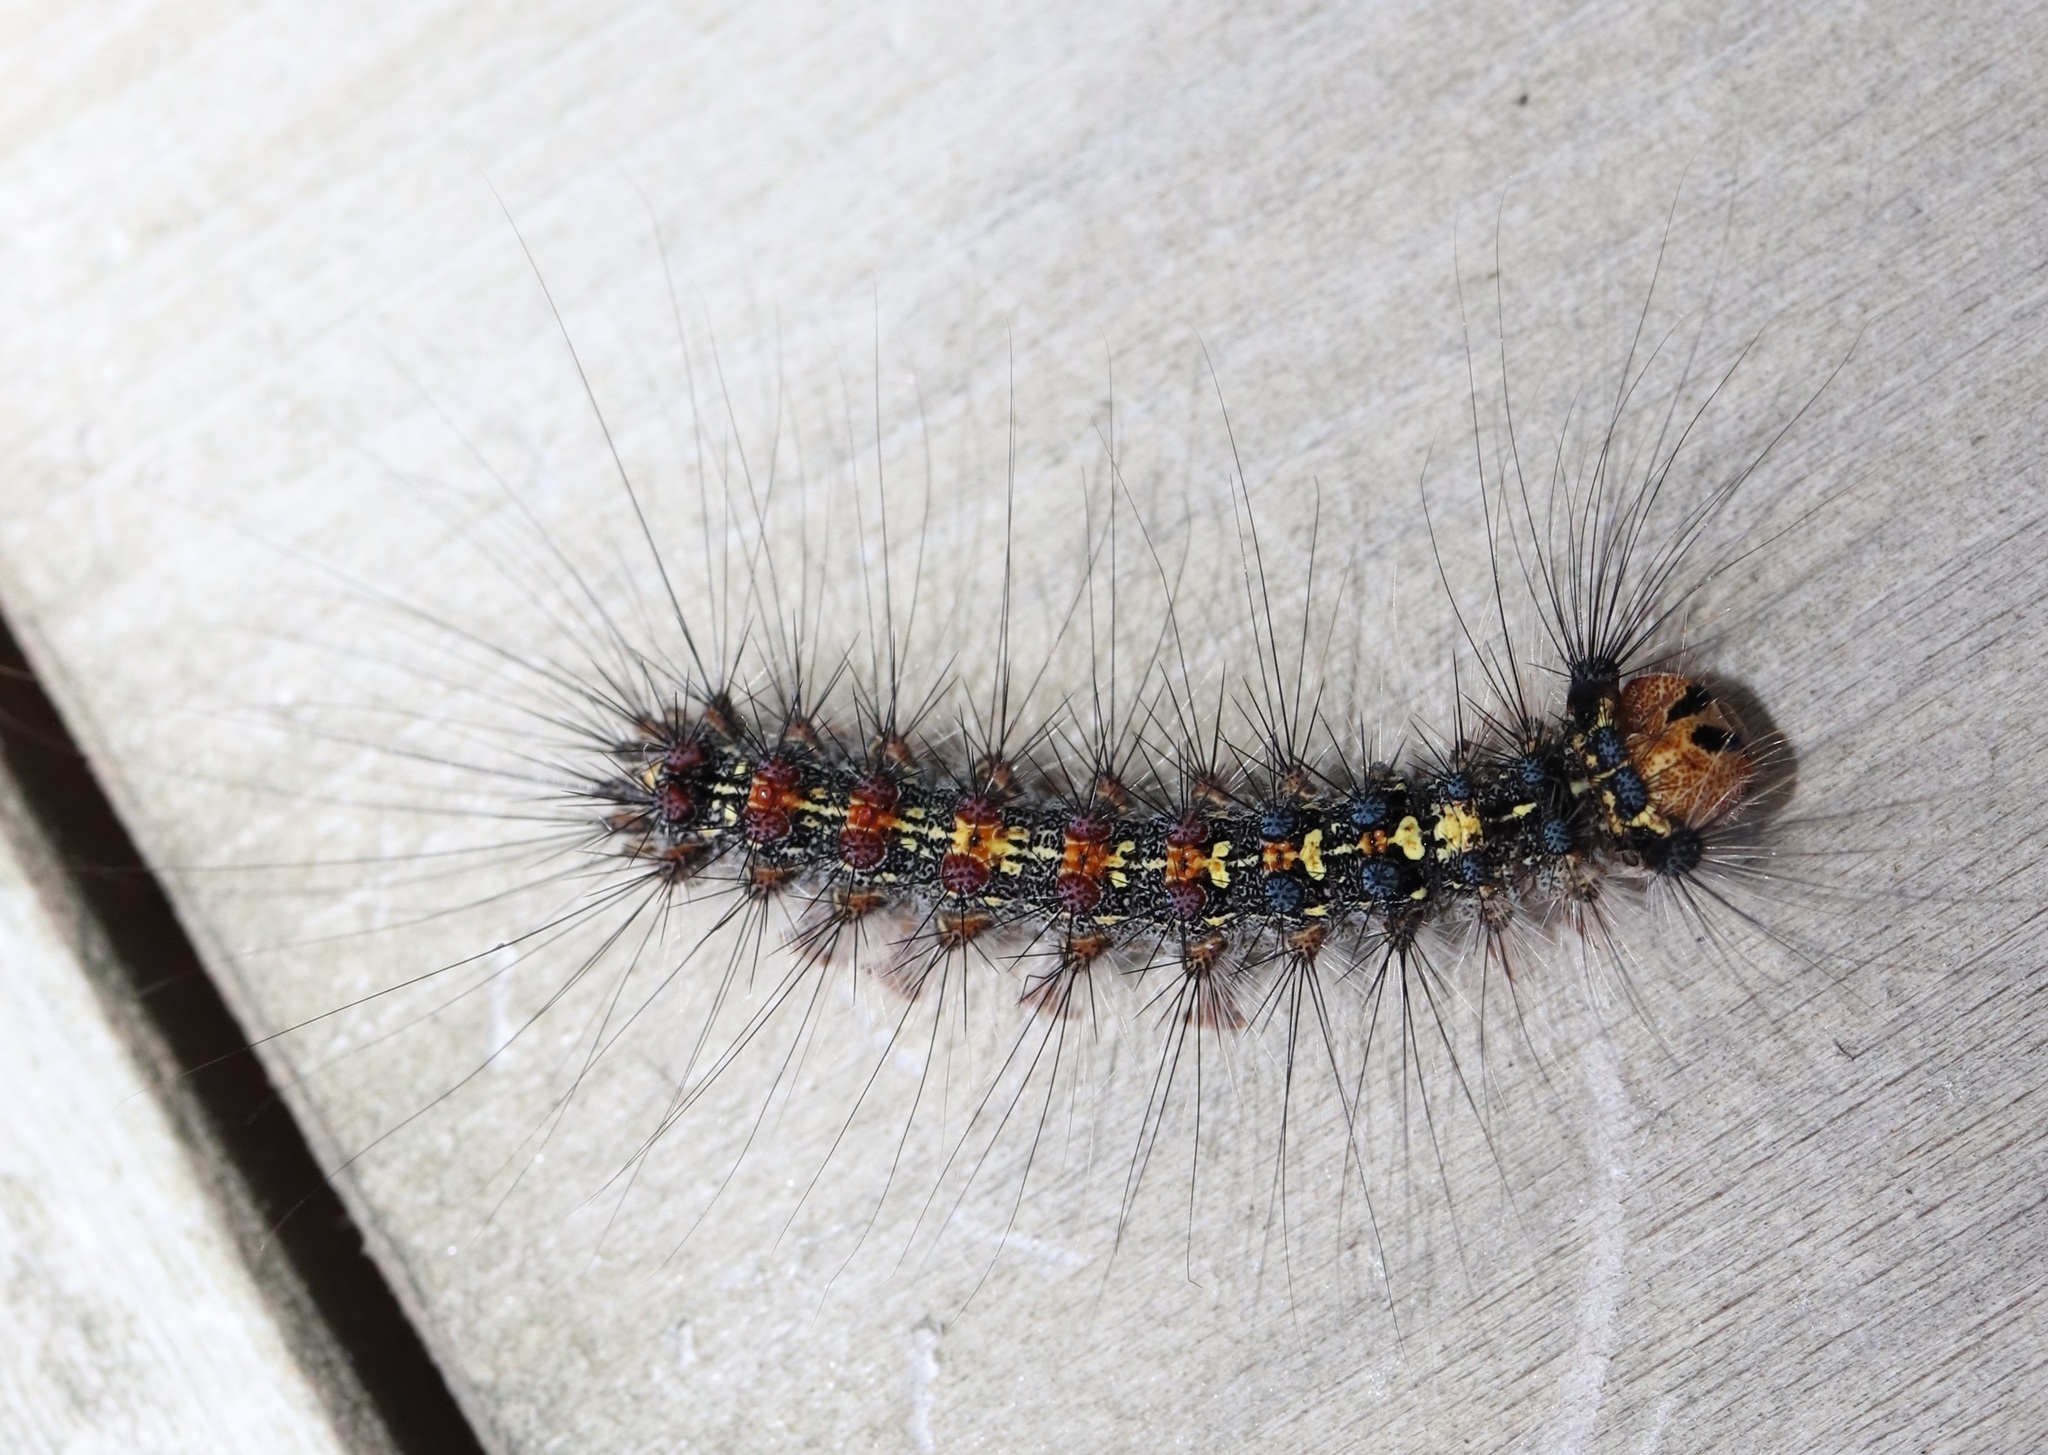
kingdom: Animalia
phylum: Arthropoda
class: Insecta
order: Lepidoptera
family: Erebidae
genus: Lymantria
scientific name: Lymantria dispar
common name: Gypsy moth
